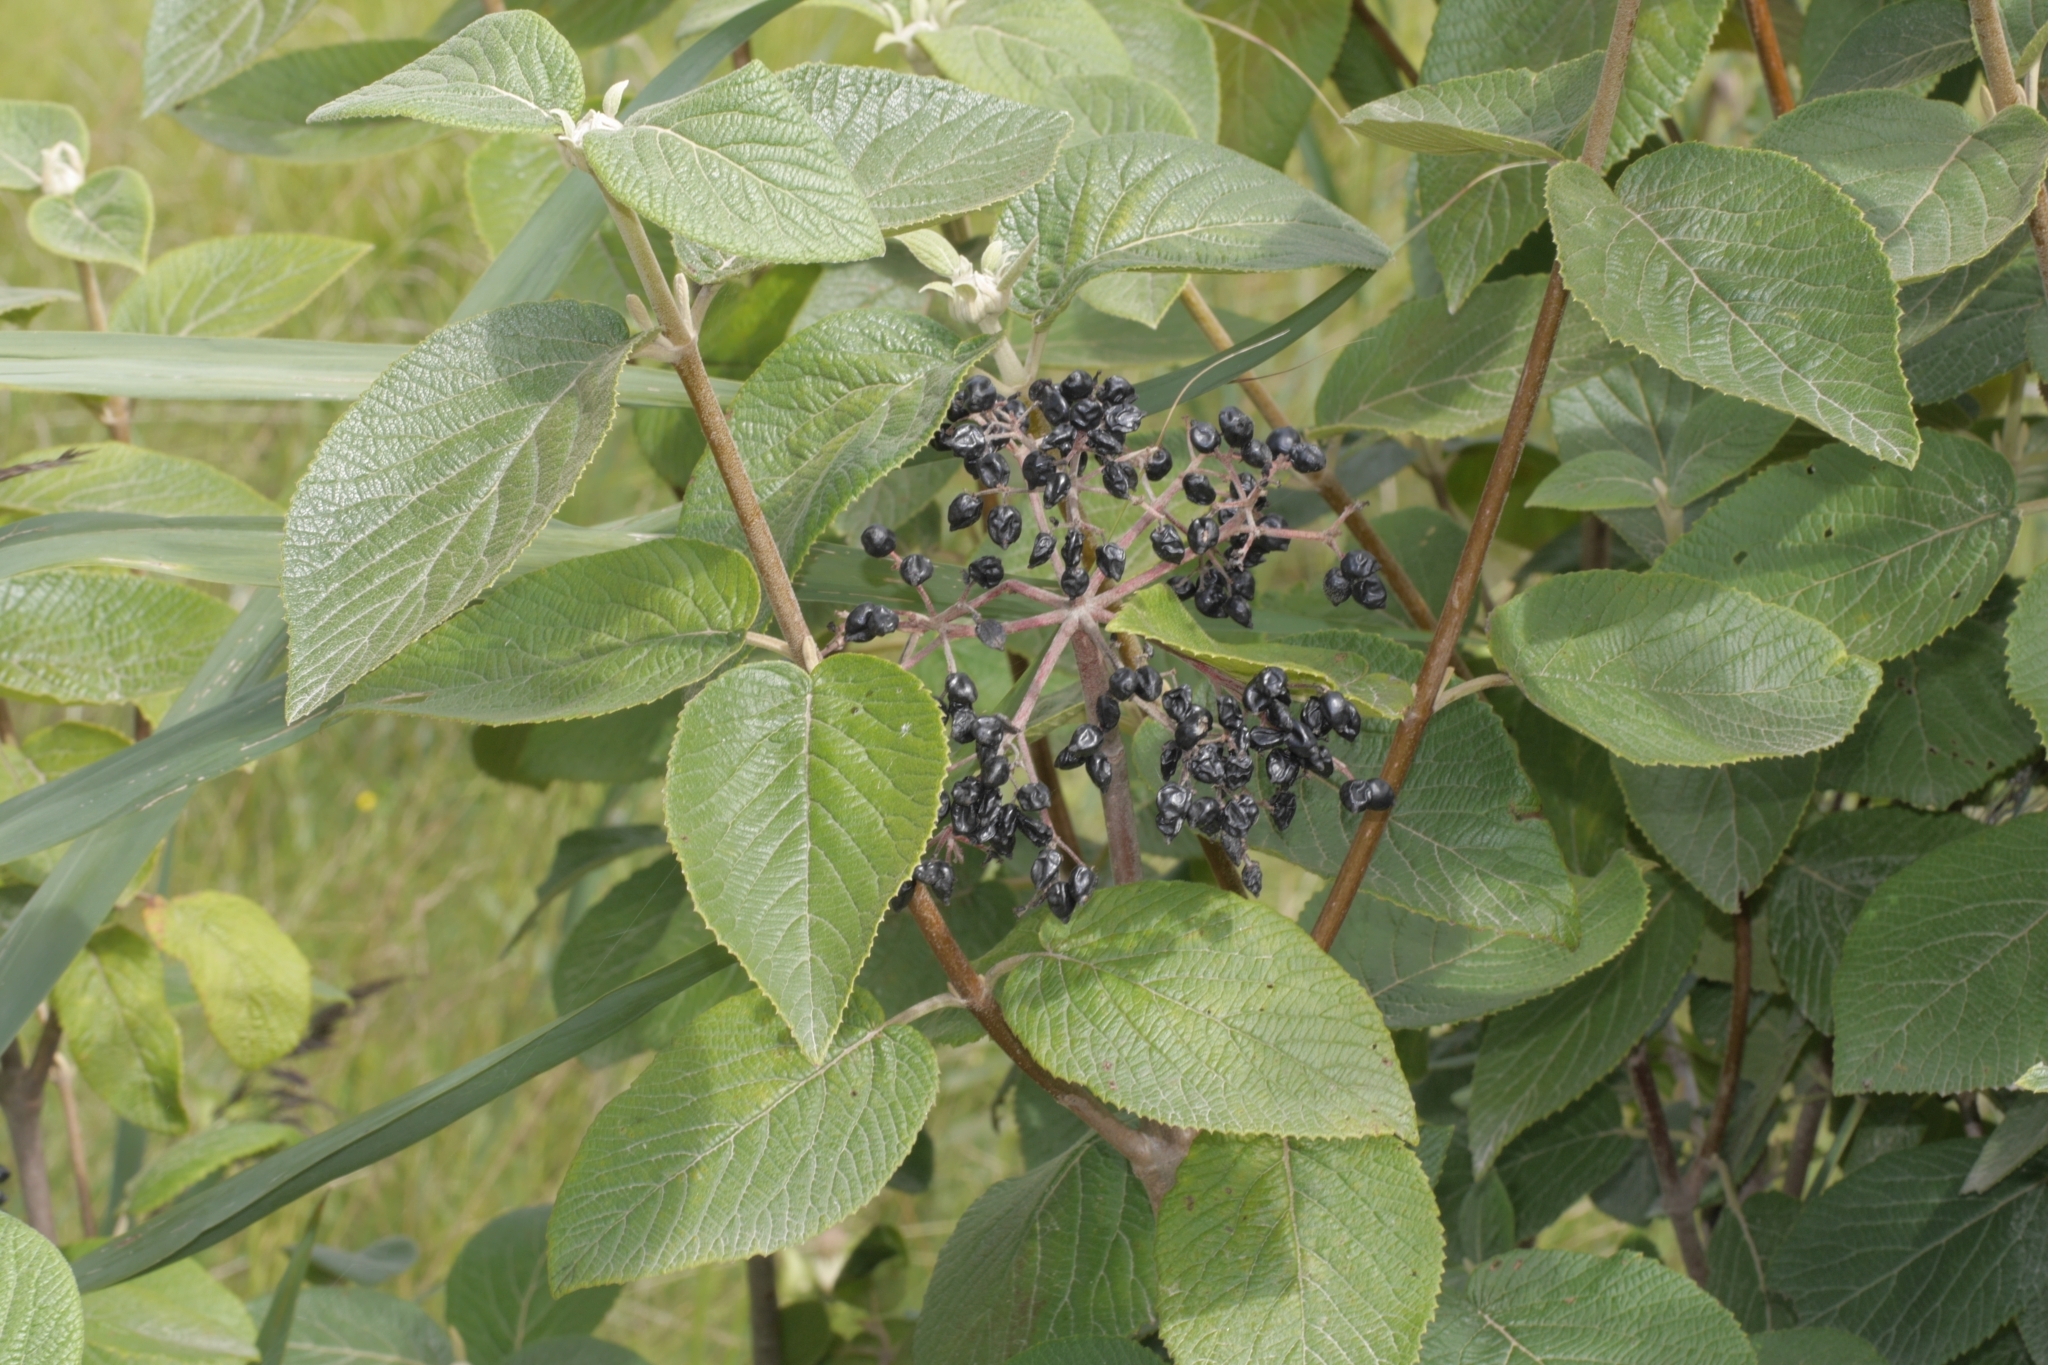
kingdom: Plantae
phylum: Tracheophyta
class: Magnoliopsida
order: Dipsacales
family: Viburnaceae
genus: Viburnum
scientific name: Viburnum lantana
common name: Wayfaring tree
